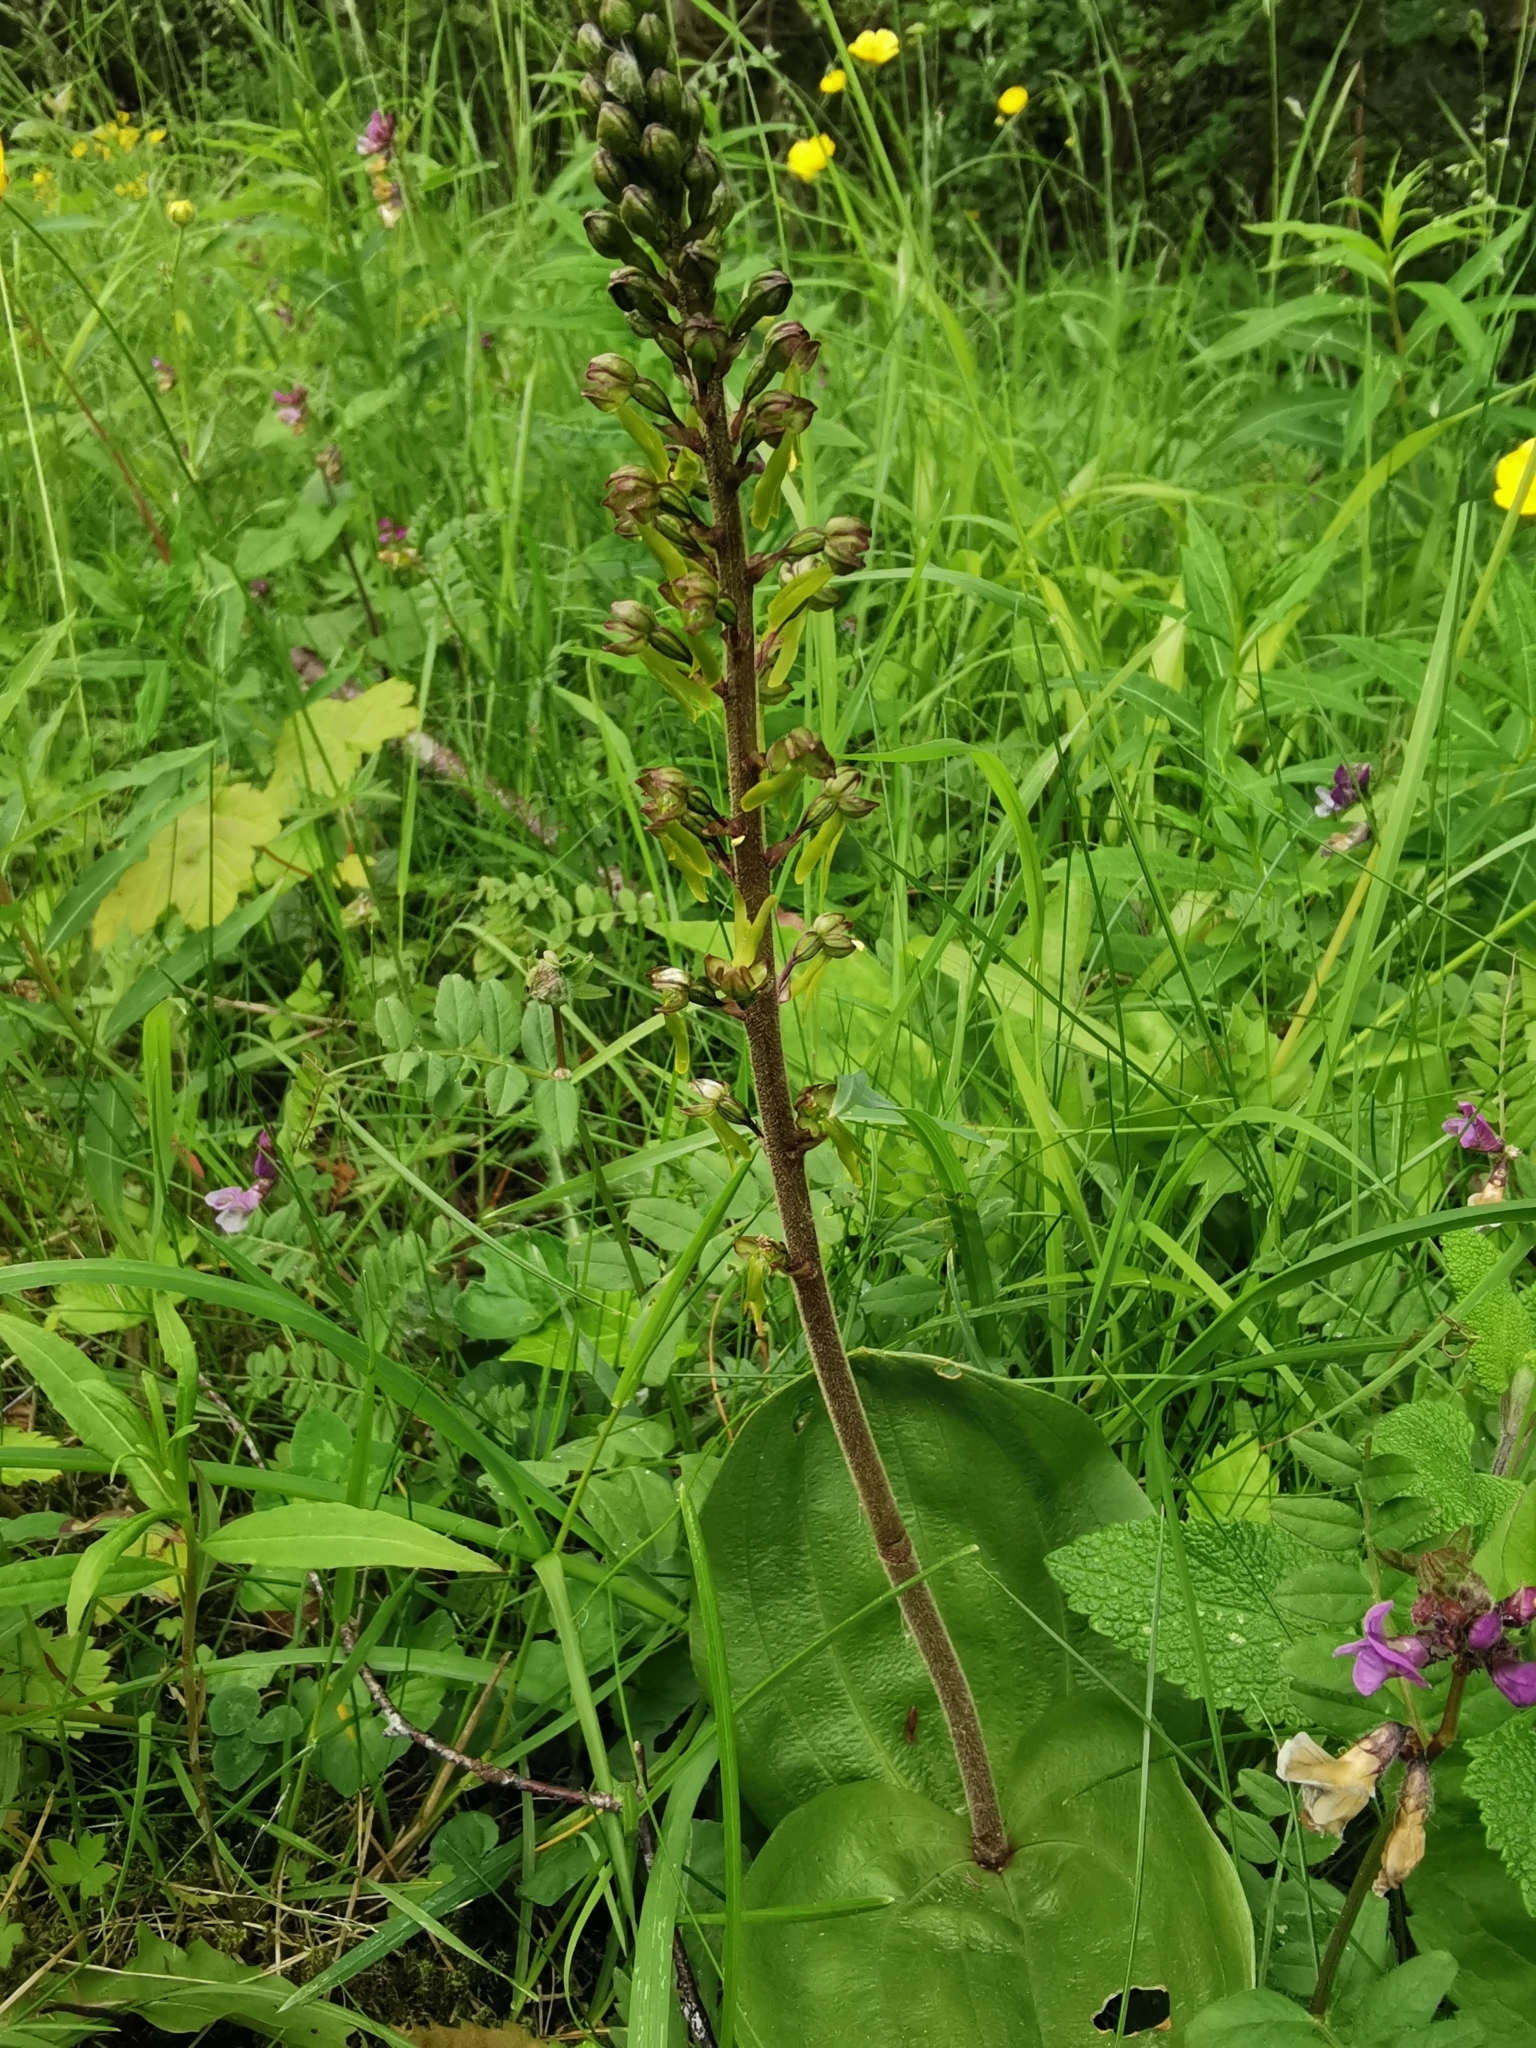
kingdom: Plantae
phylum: Tracheophyta
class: Liliopsida
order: Asparagales
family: Orchidaceae
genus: Neottia
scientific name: Neottia ovata
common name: Common twayblade
